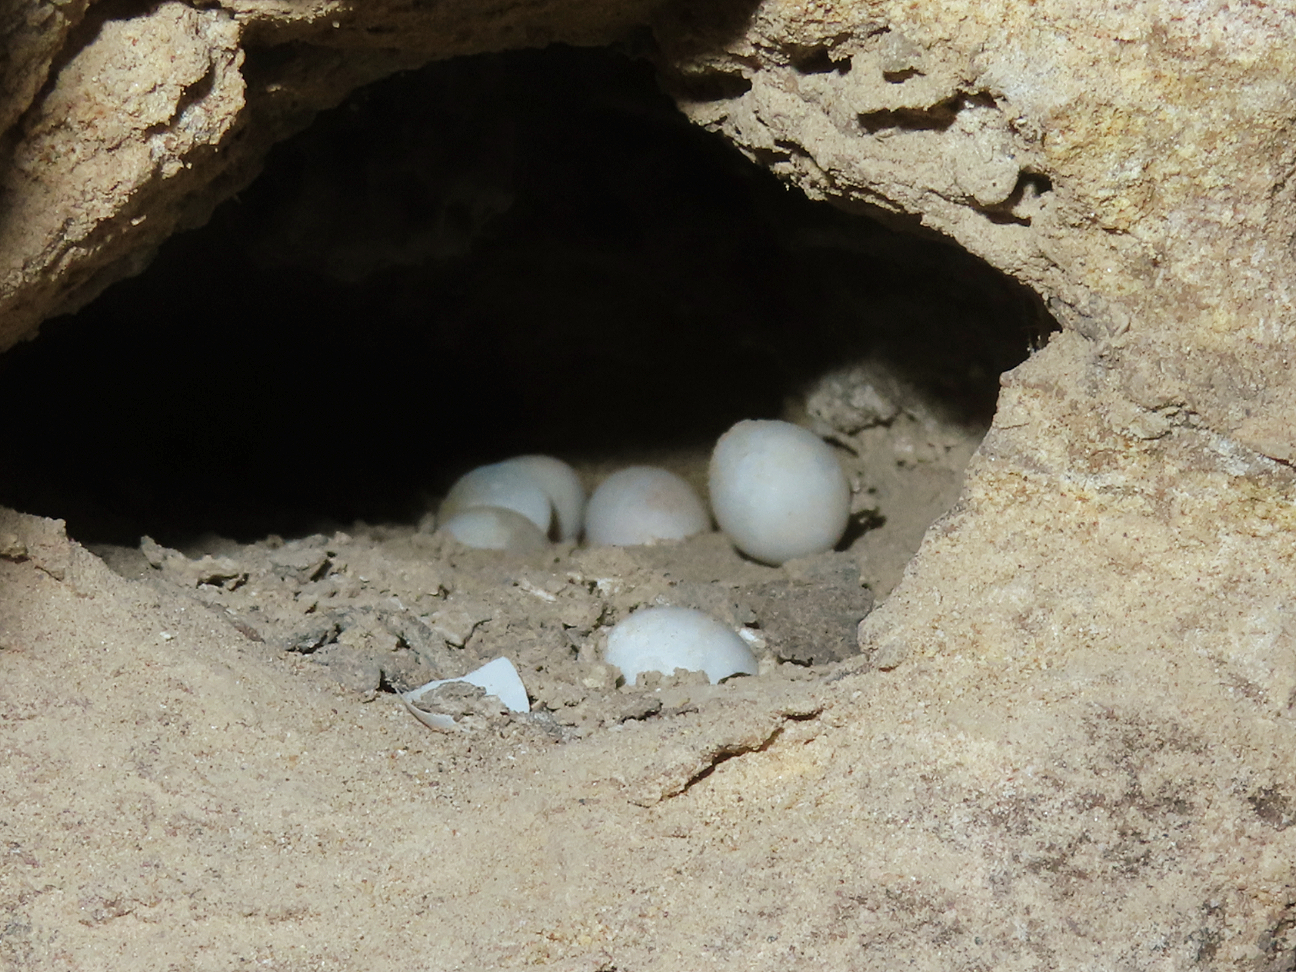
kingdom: Animalia
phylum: Chordata
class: Squamata
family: Gekkonidae
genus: Tenuidactylus
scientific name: Tenuidactylus caspius
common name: Caspian bent-toed gecko
